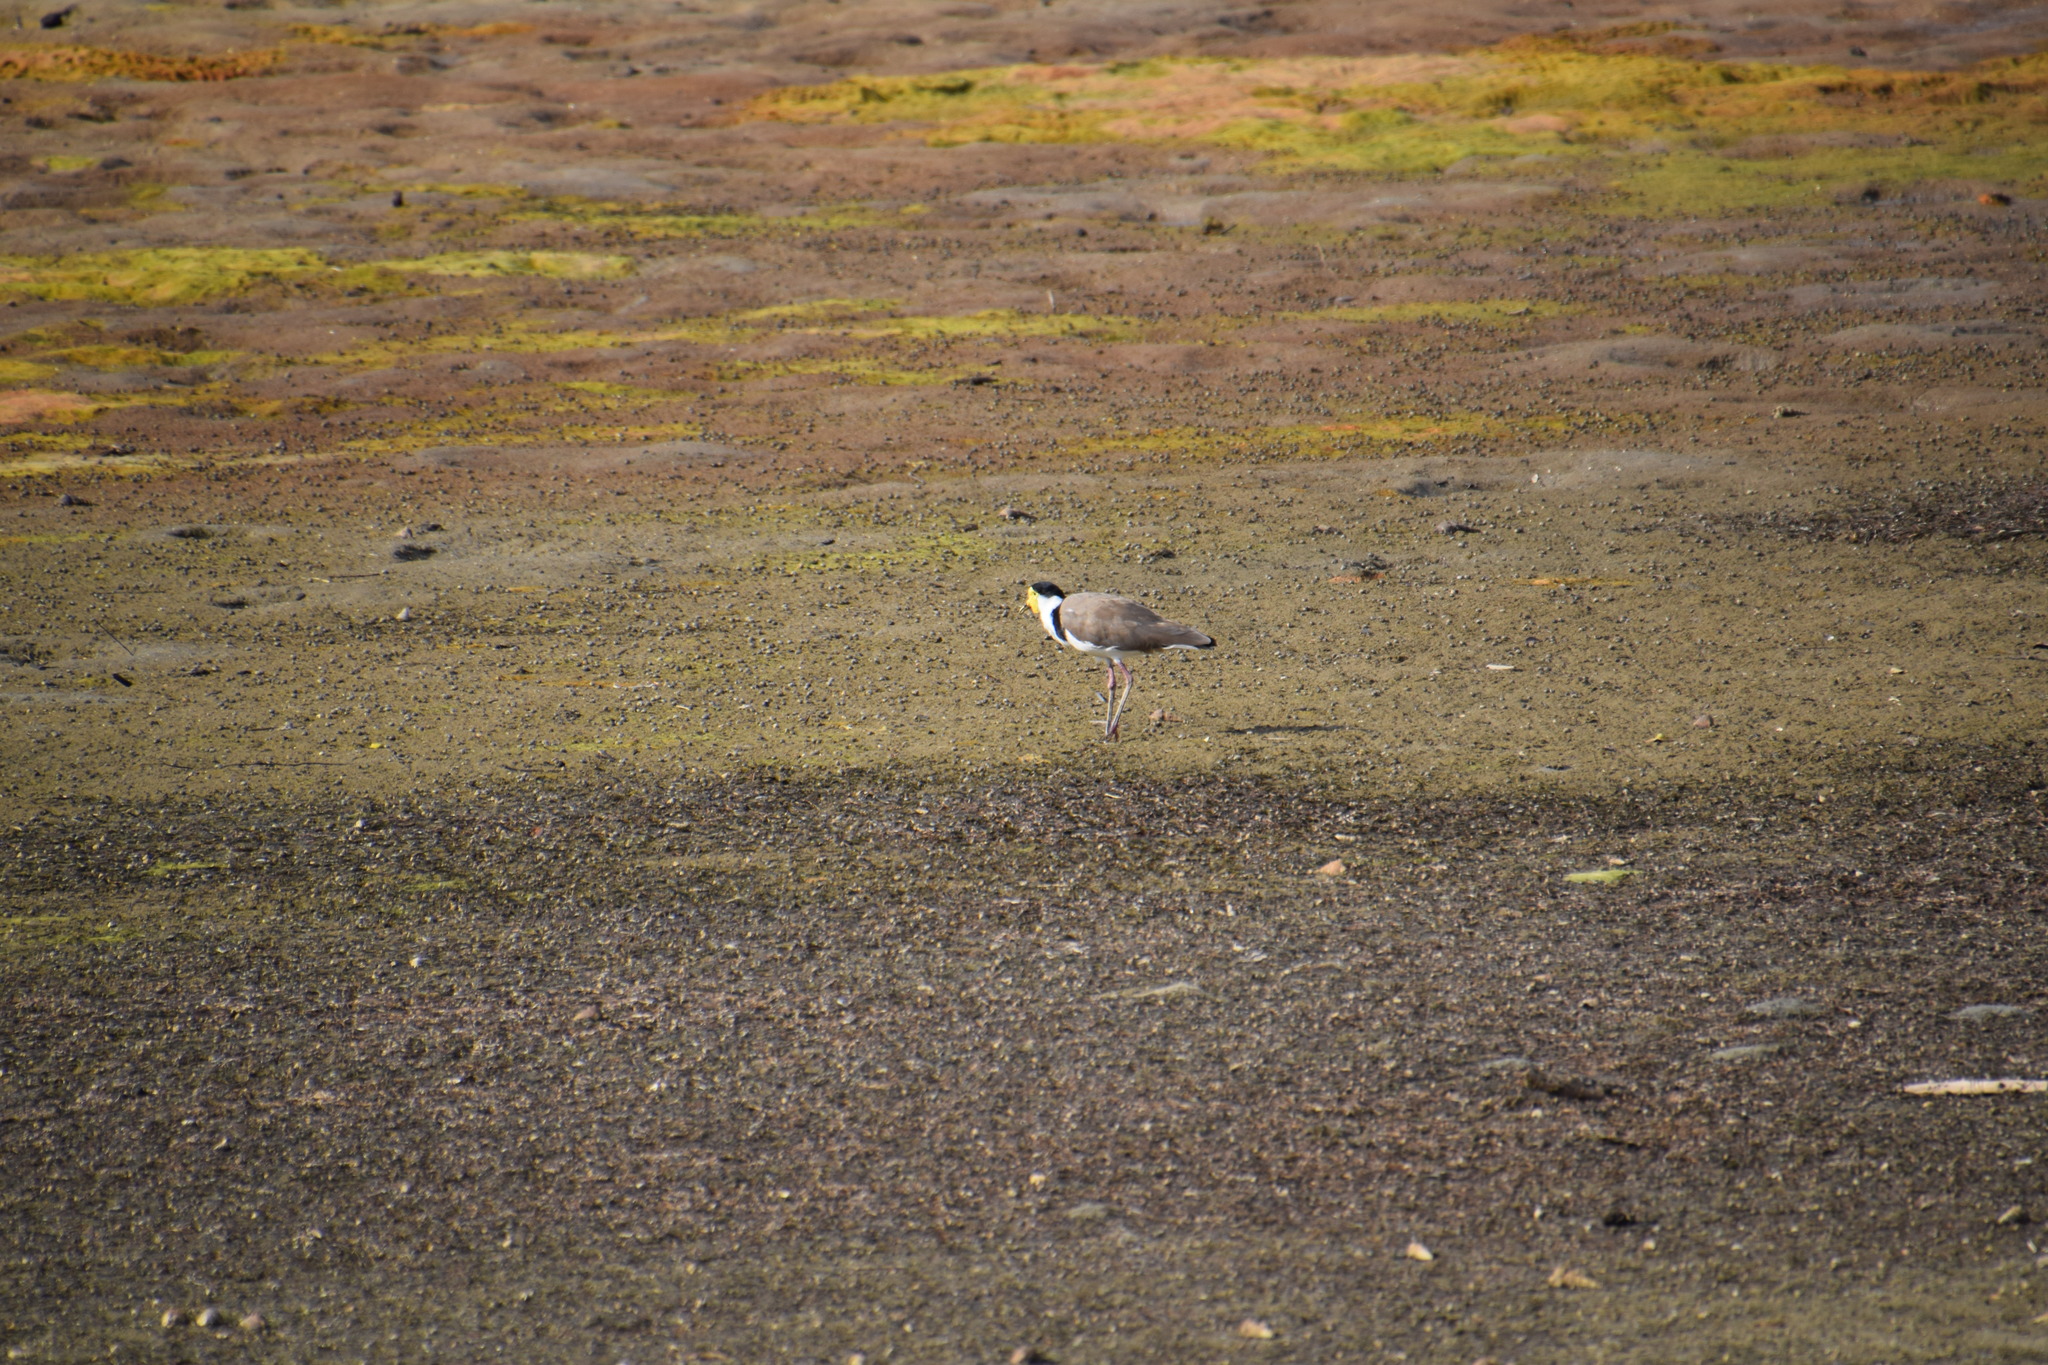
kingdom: Animalia
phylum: Chordata
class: Aves
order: Charadriiformes
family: Charadriidae
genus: Vanellus
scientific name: Vanellus miles
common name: Masked lapwing
